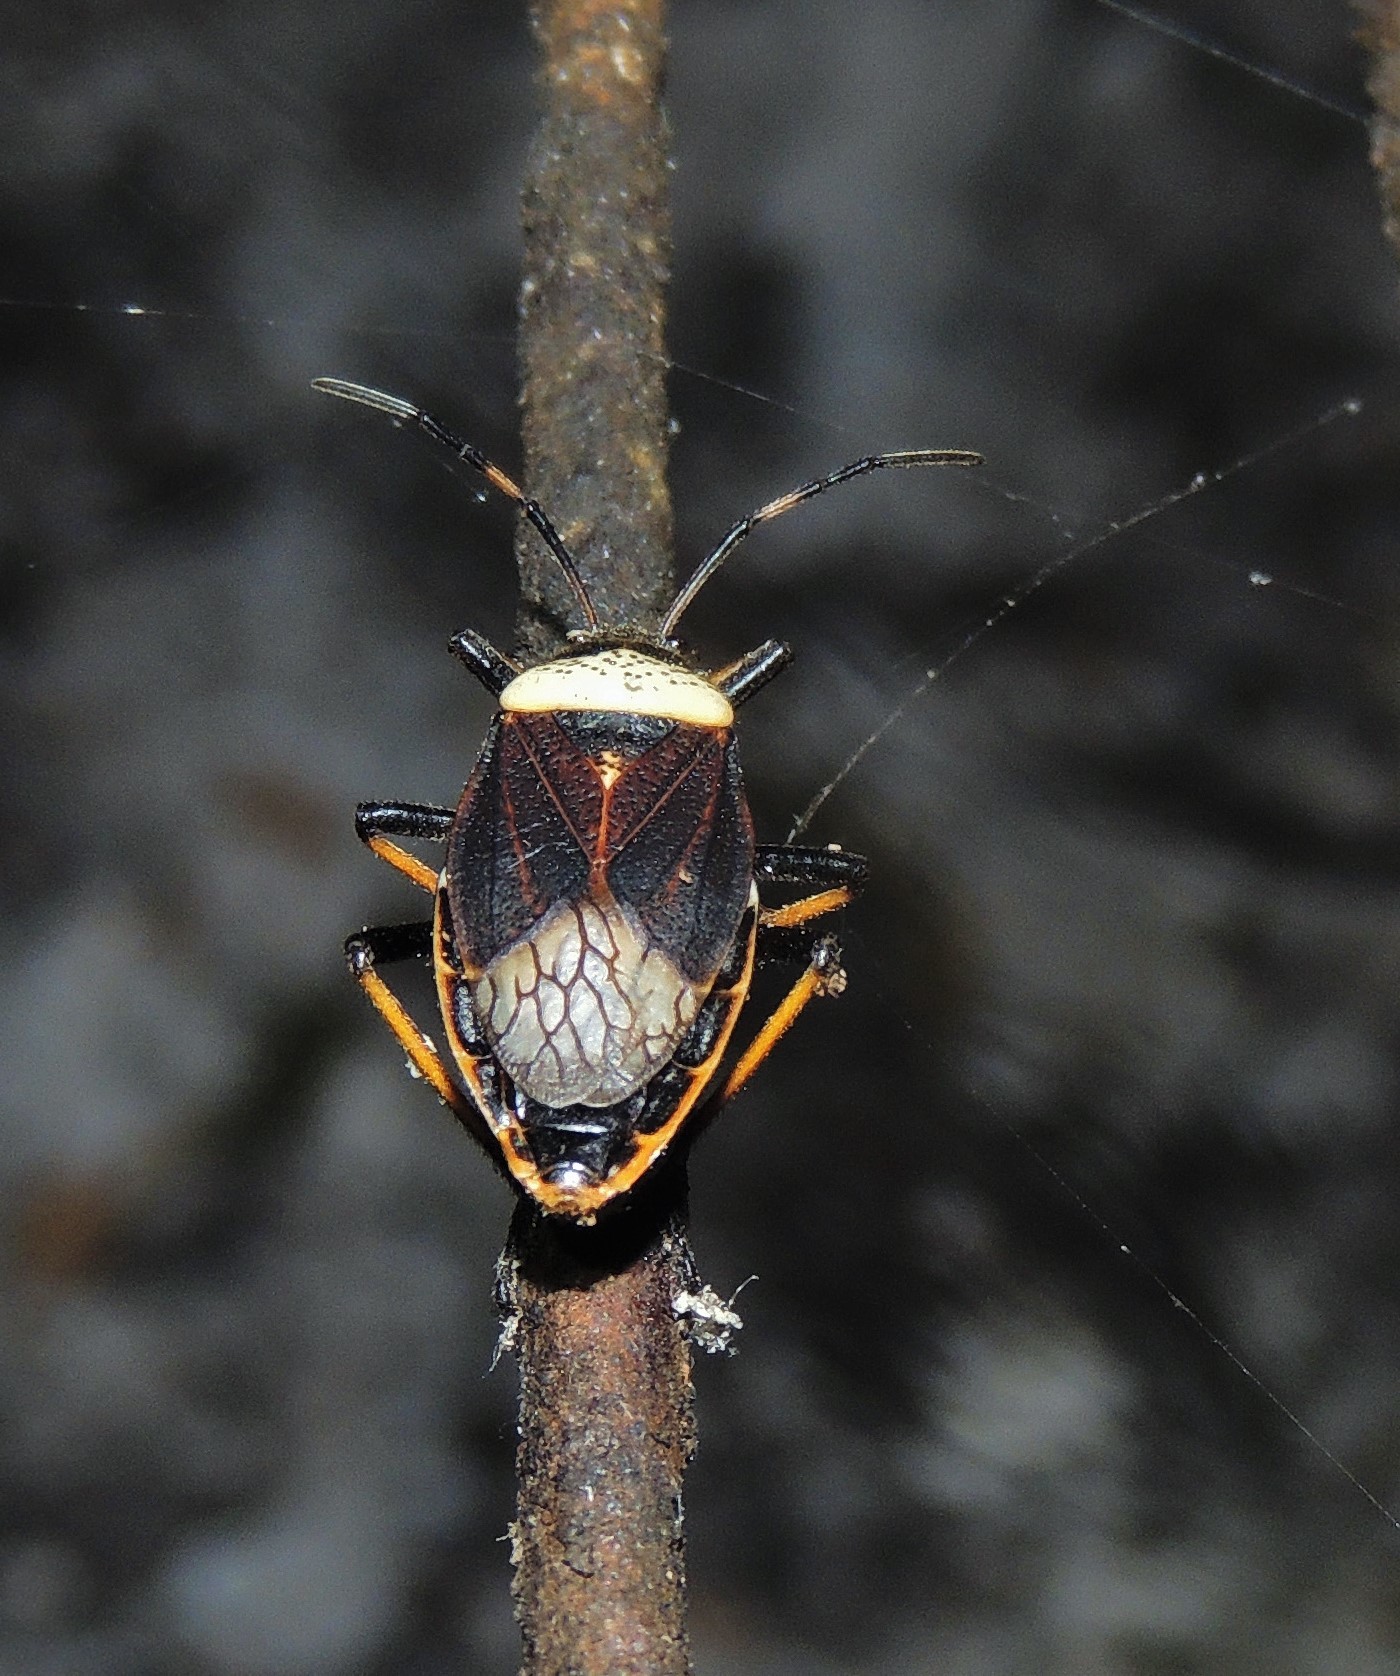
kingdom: Animalia
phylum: Arthropoda
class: Insecta
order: Hemiptera
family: Largidae
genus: Largus
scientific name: Largus humilis
